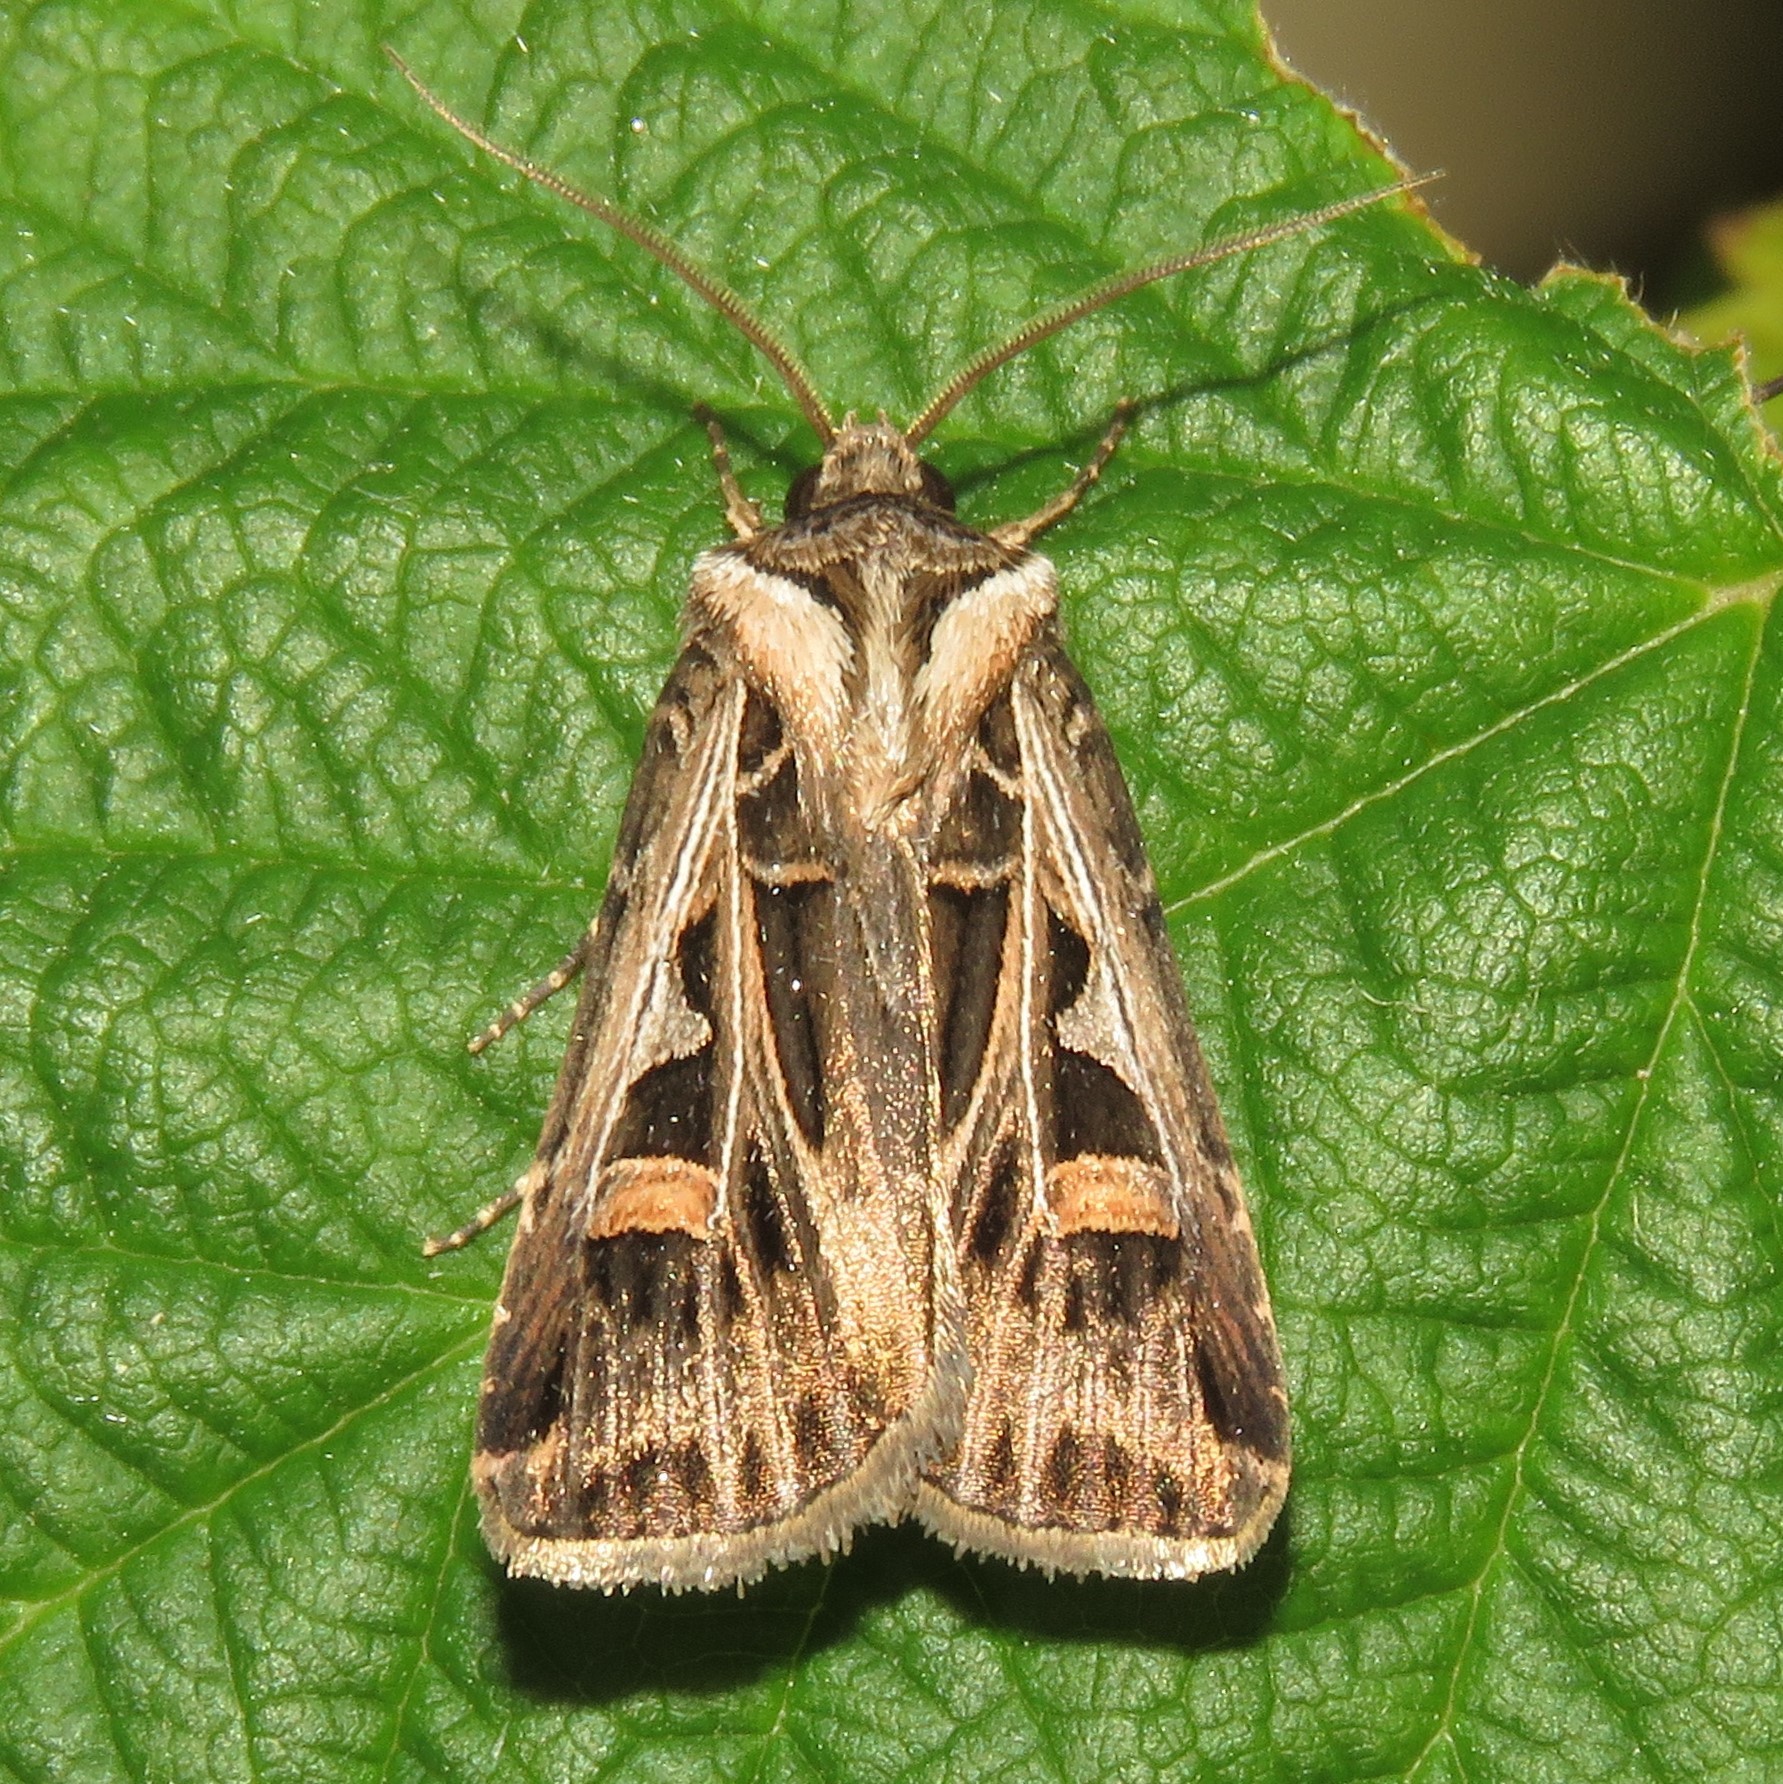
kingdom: Animalia
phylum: Arthropoda
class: Insecta
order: Lepidoptera
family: Noctuidae
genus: Feltia
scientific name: Feltia jaculifera
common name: Dingy cutworm moth
